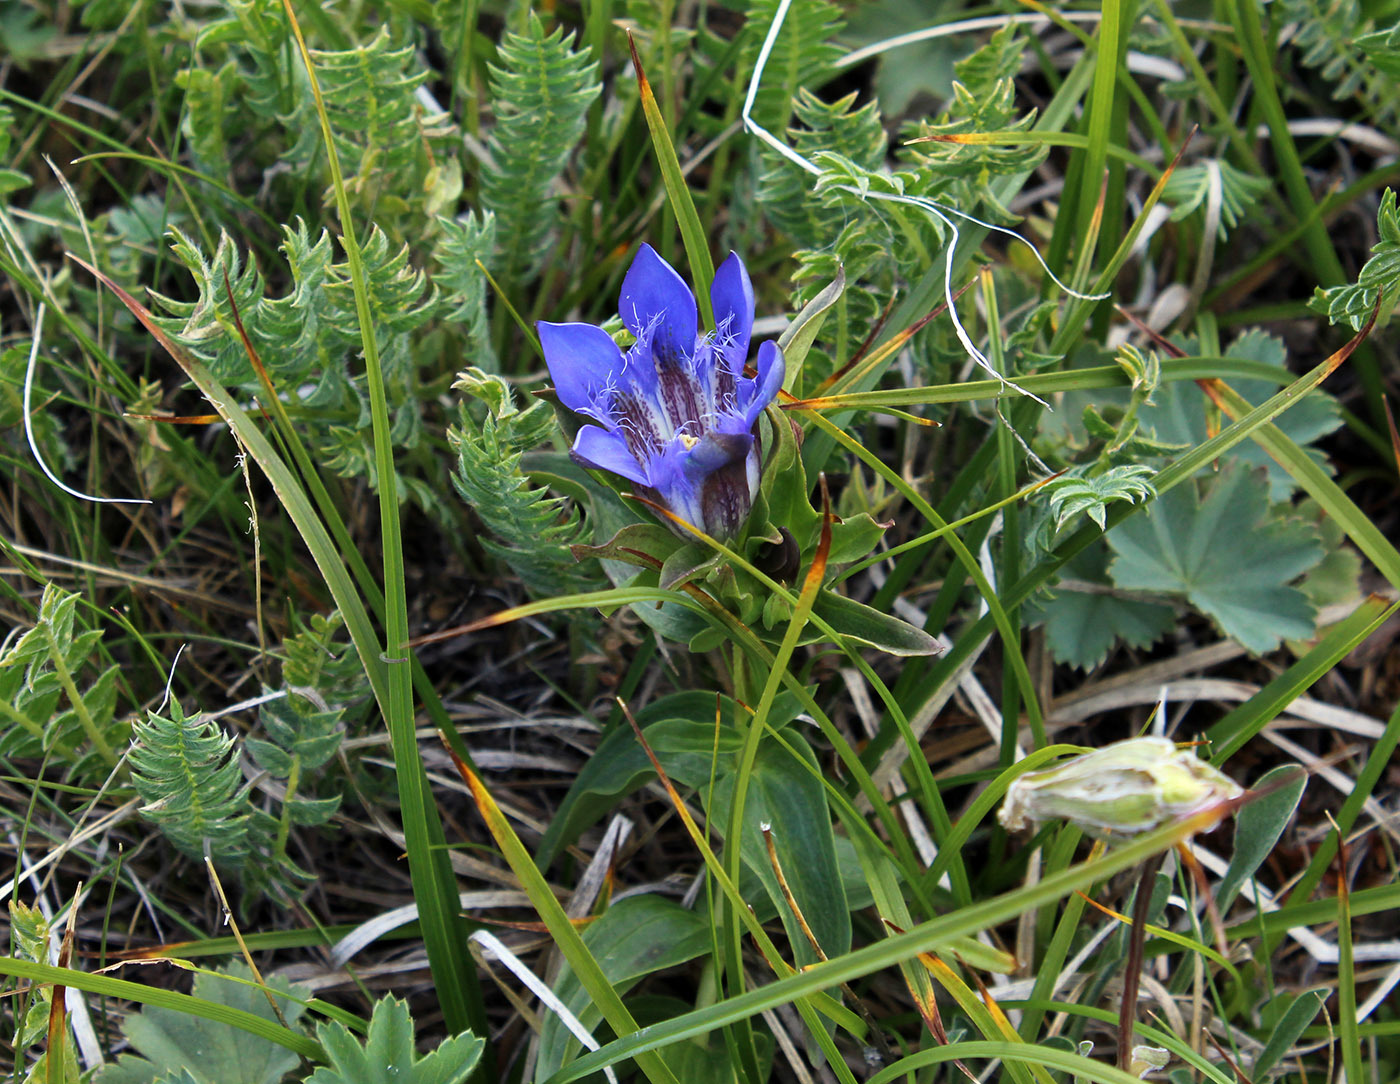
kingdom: Plantae
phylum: Tracheophyta
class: Magnoliopsida
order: Gentianales
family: Gentianaceae
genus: Gentiana
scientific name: Gentiana septemfida
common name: Crested gentian
